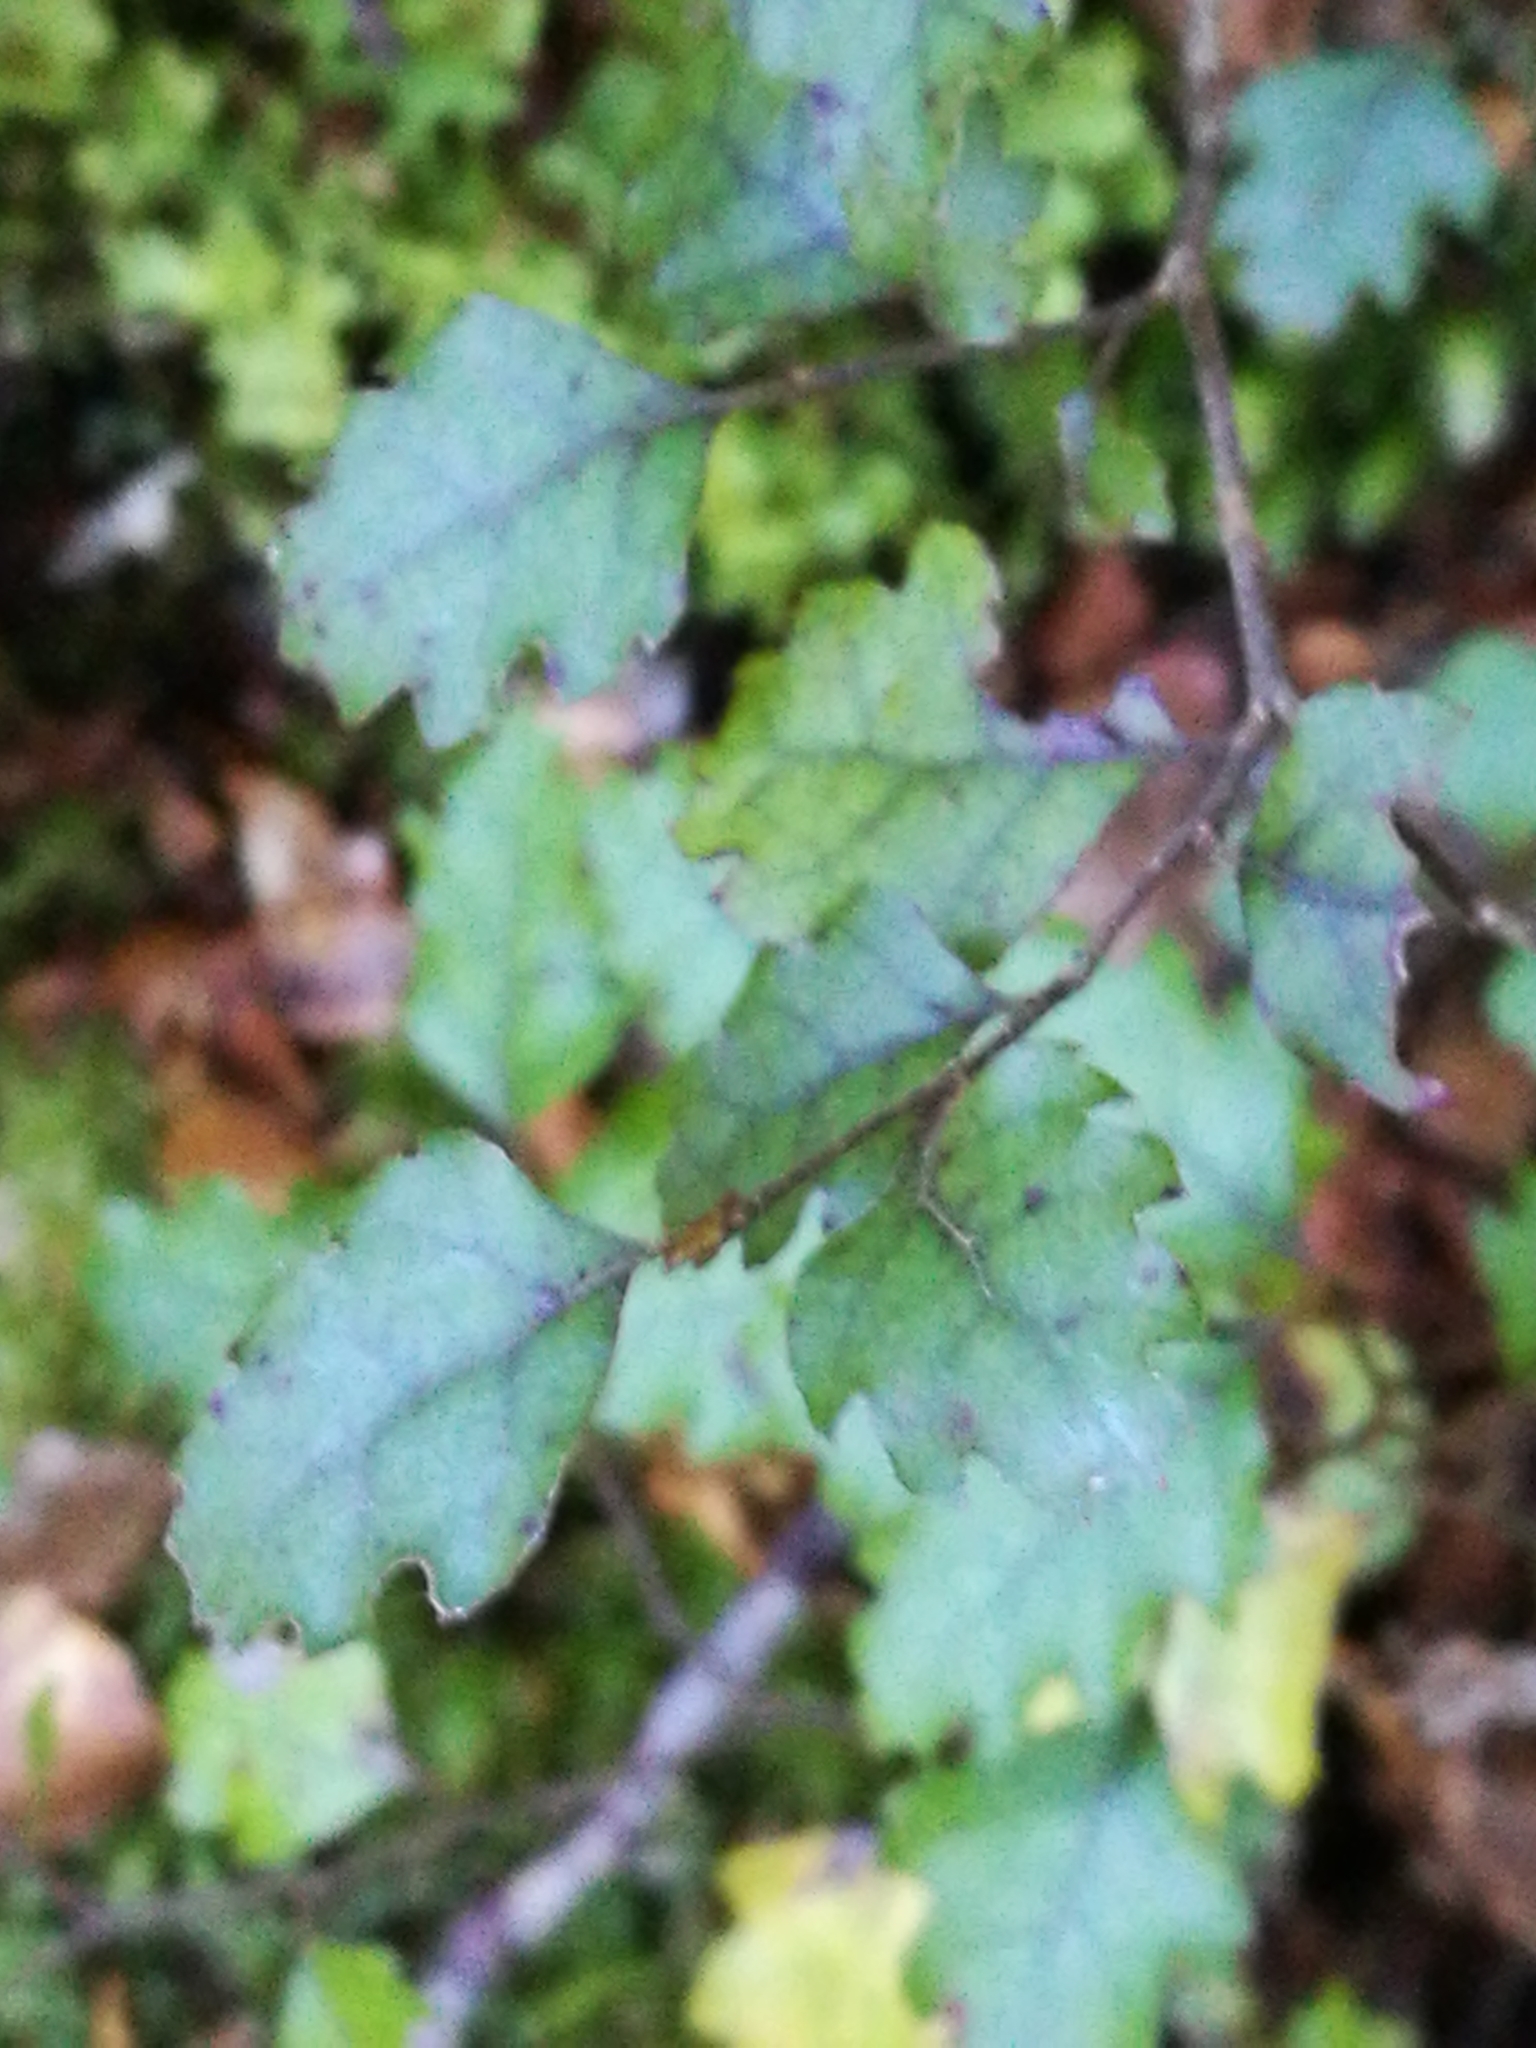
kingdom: Plantae
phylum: Tracheophyta
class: Magnoliopsida
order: Fagales
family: Nothofagaceae
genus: Nothofagus
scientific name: Nothofagus fusca
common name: Red beech
